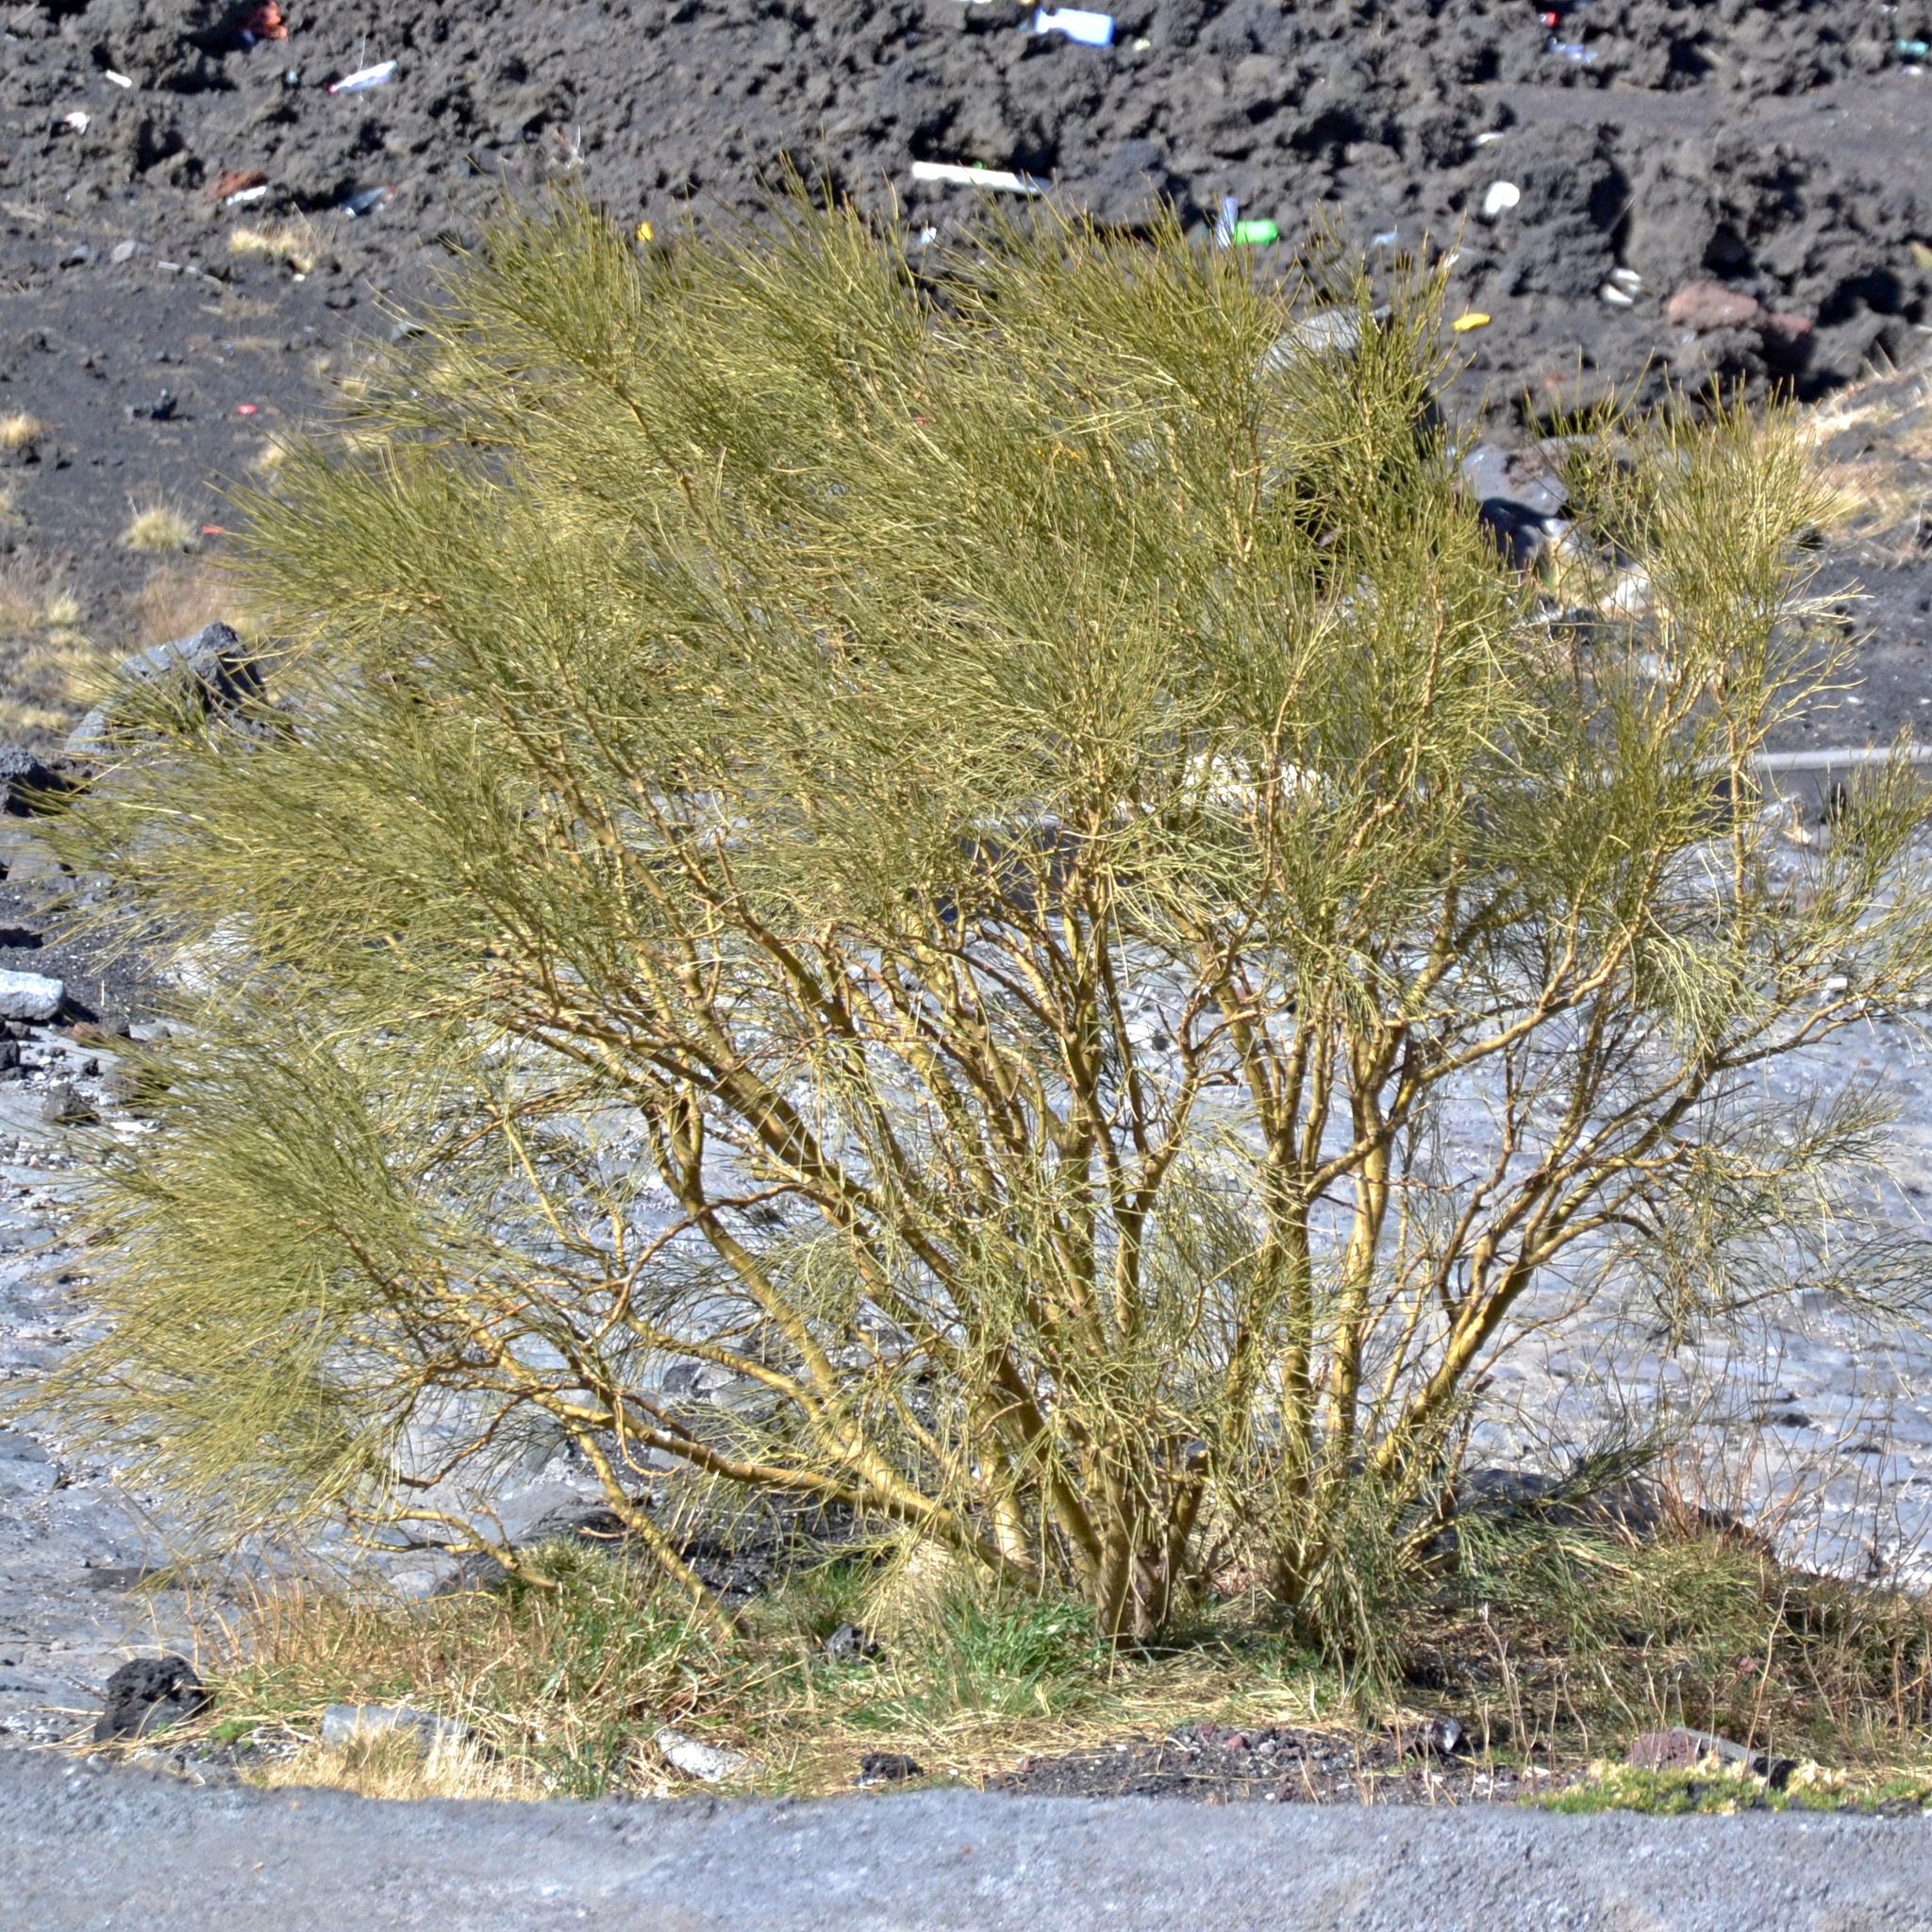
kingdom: Plantae
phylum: Tracheophyta
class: Magnoliopsida
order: Fabales
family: Fabaceae
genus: Genista
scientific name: Genista aetnensis
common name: Mount etna broom
